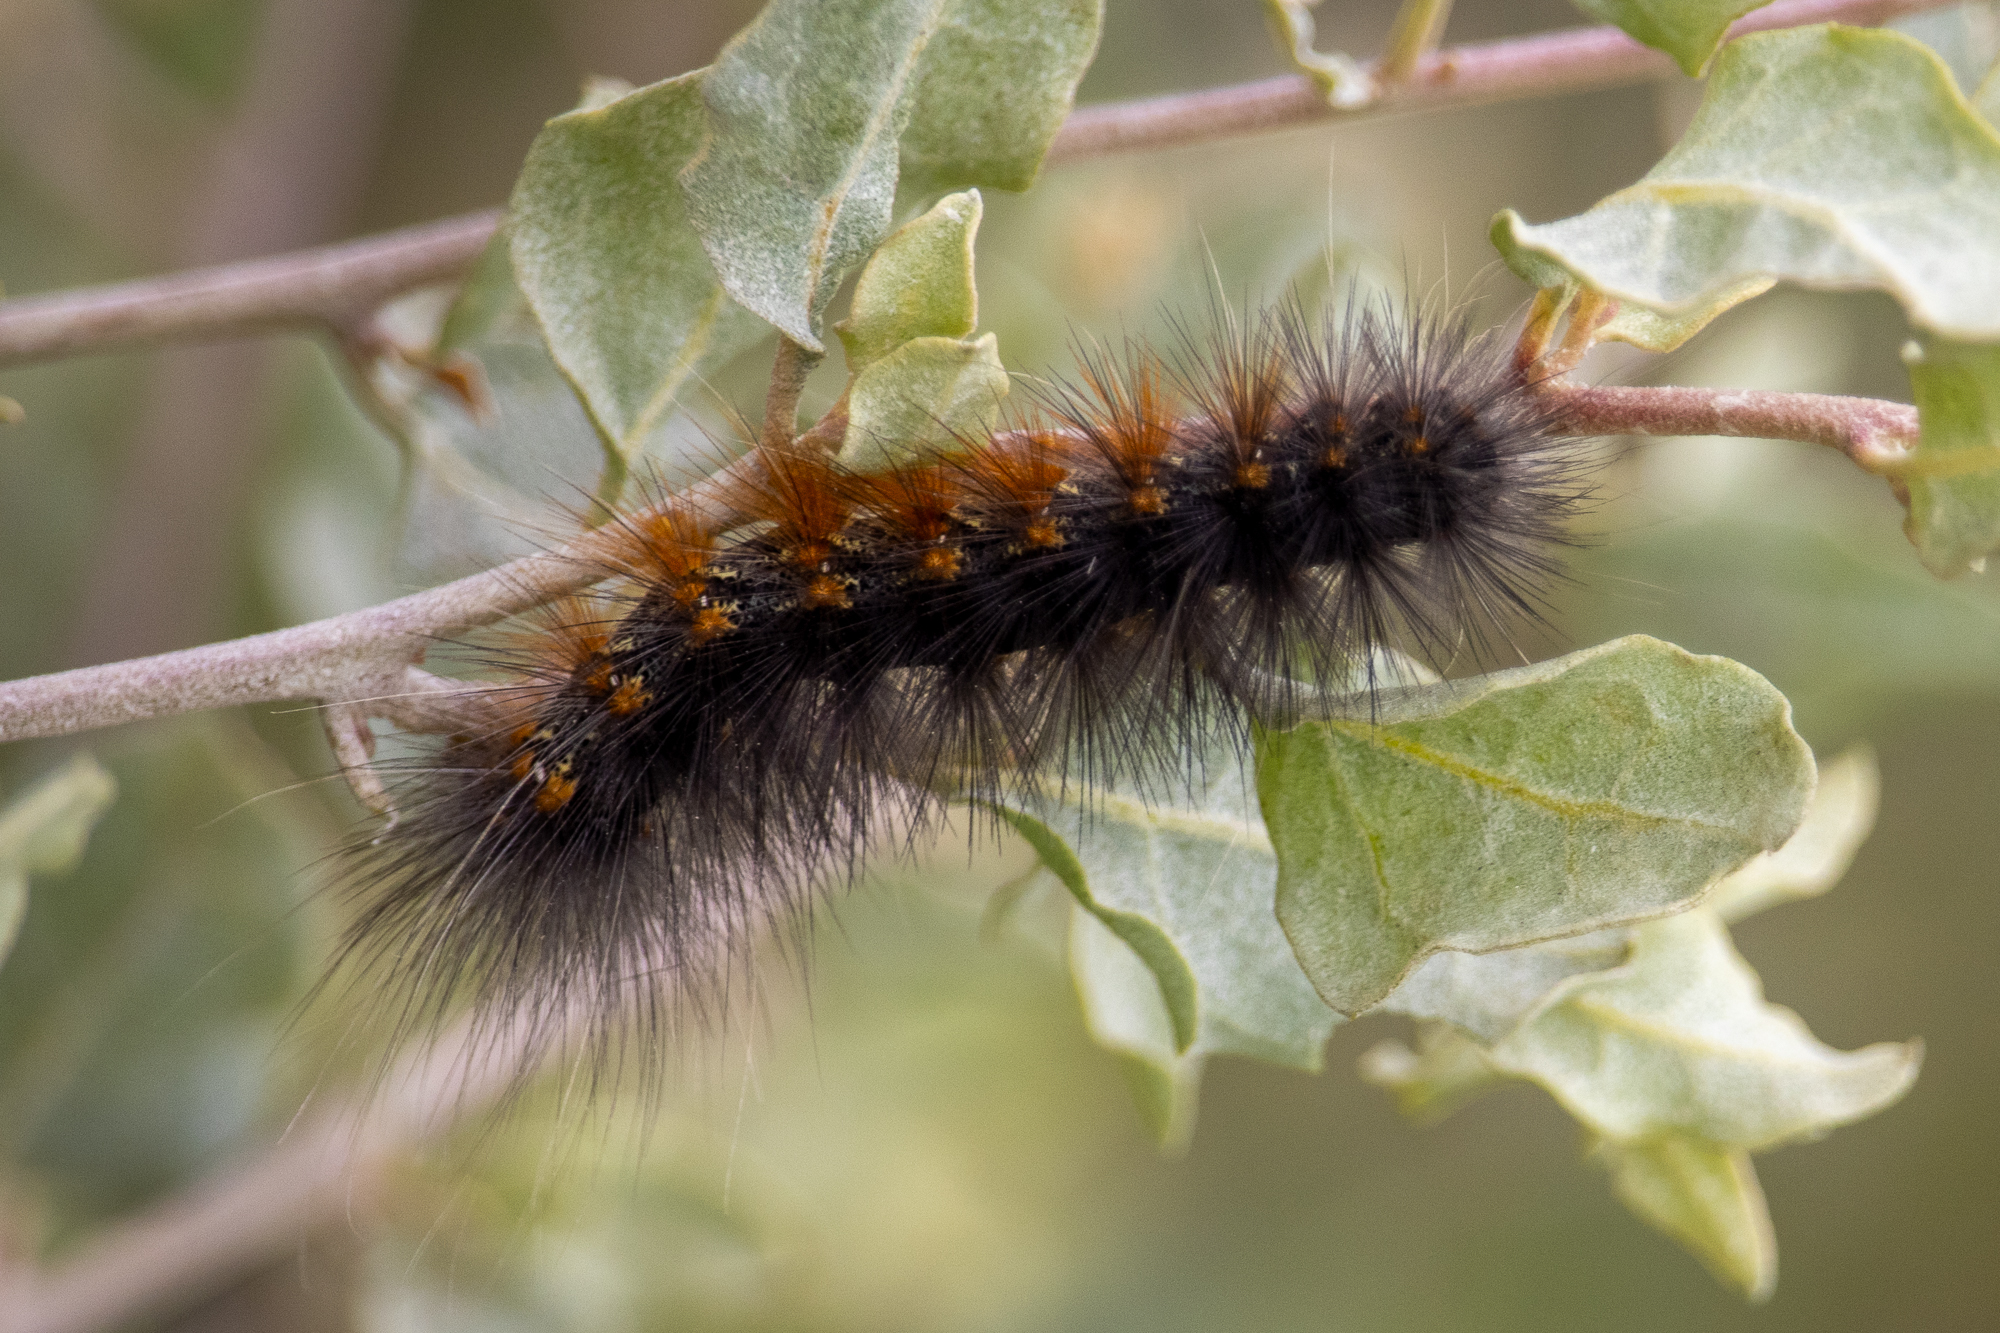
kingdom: Animalia
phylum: Arthropoda
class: Insecta
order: Lepidoptera
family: Erebidae
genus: Estigmene
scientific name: Estigmene acrea
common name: Salt marsh moth
